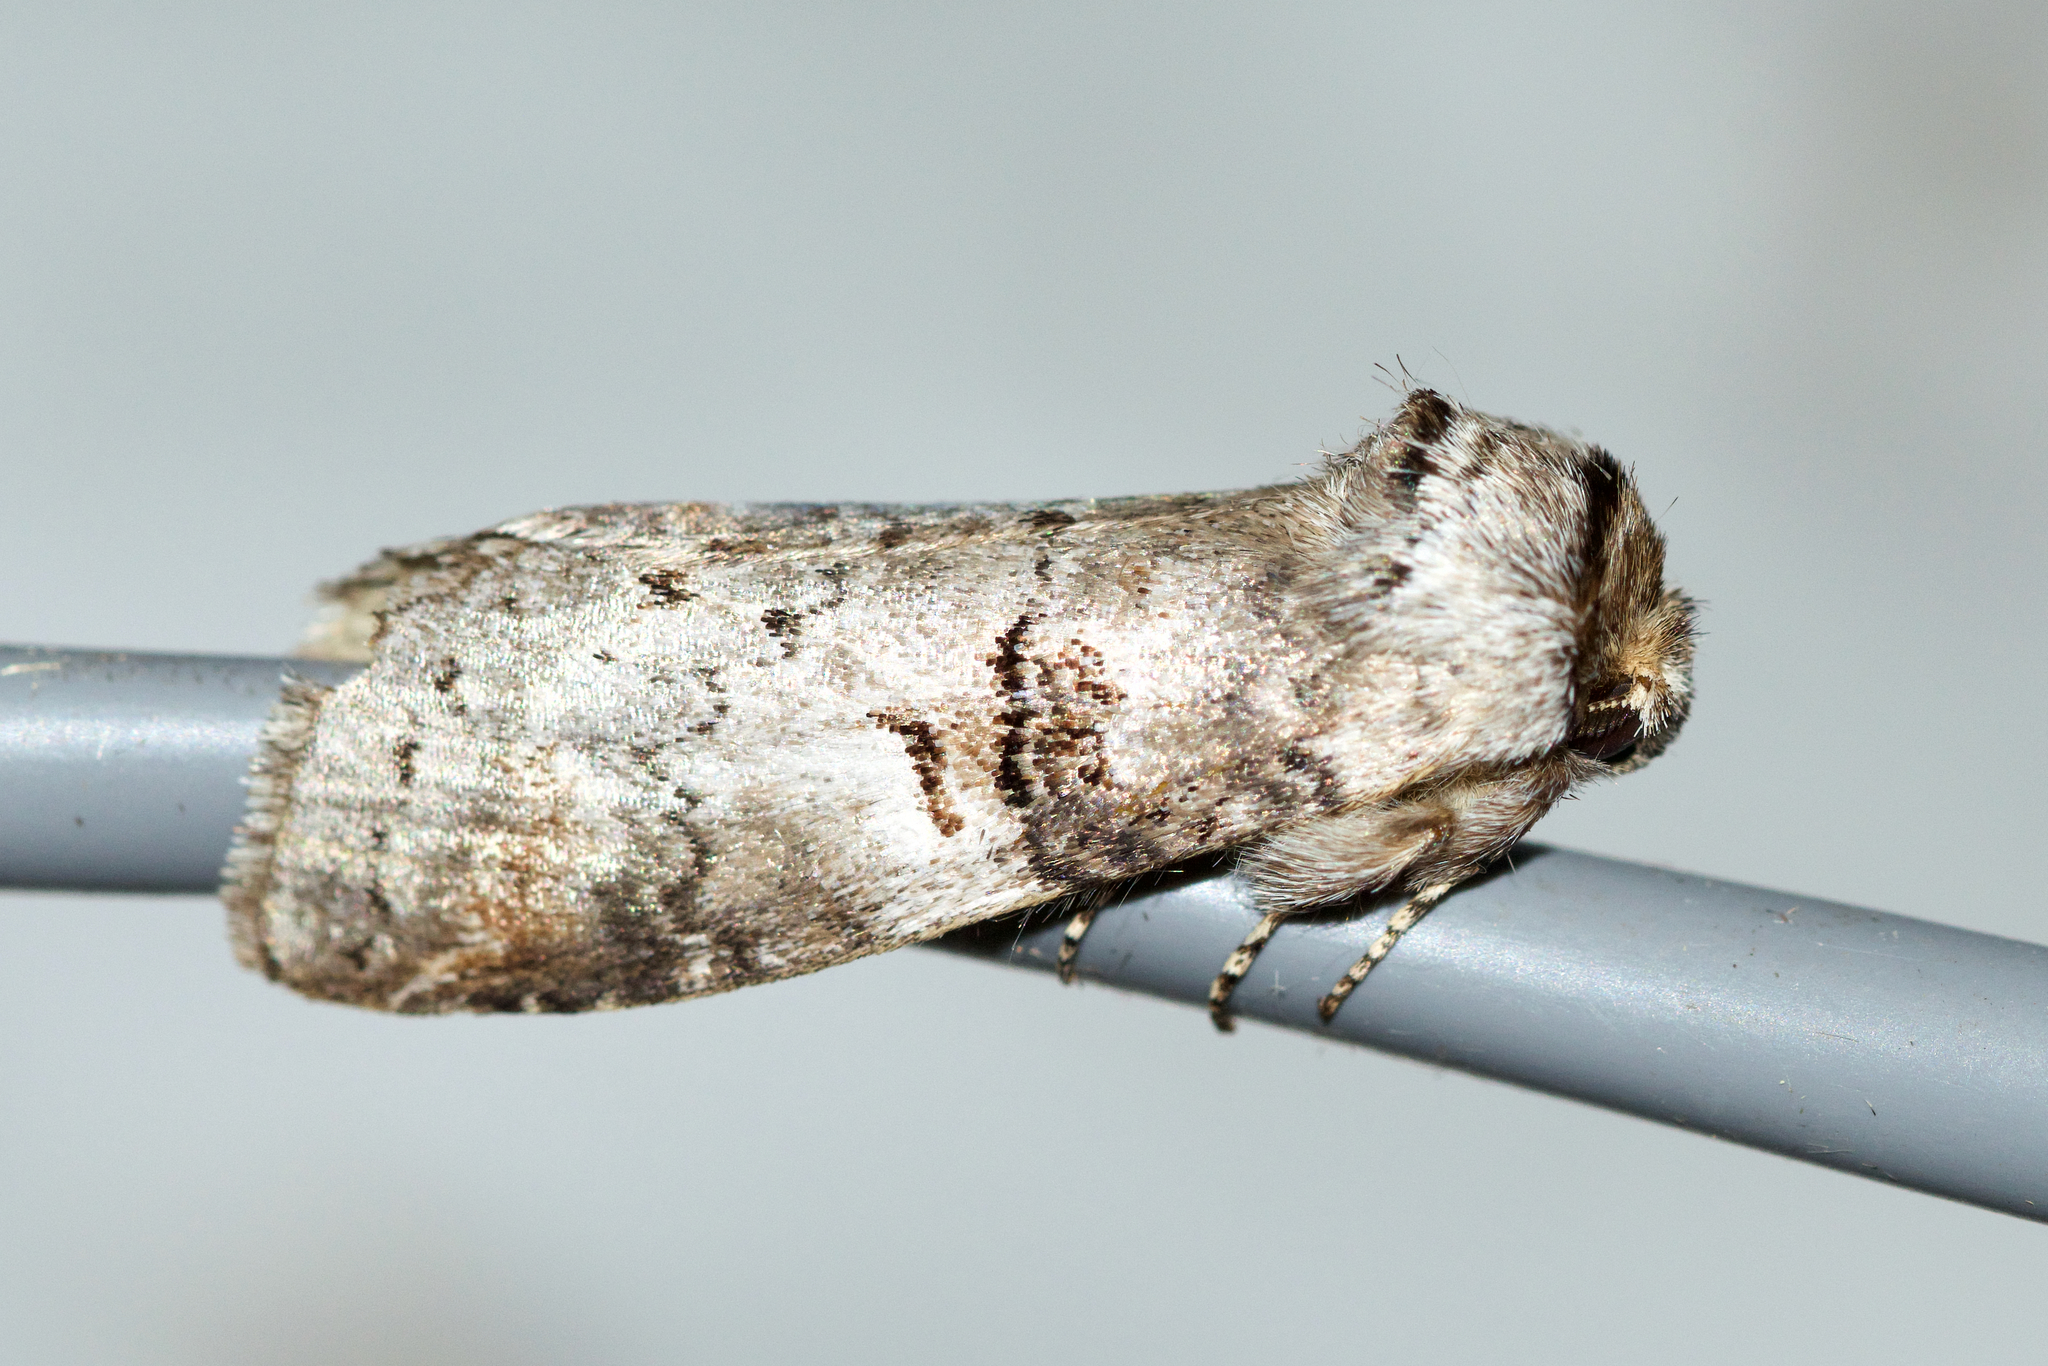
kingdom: Animalia
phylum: Arthropoda
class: Insecta
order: Lepidoptera
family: Notodontidae
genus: Ellida
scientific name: Ellida caniplaga
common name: Linden prominent
